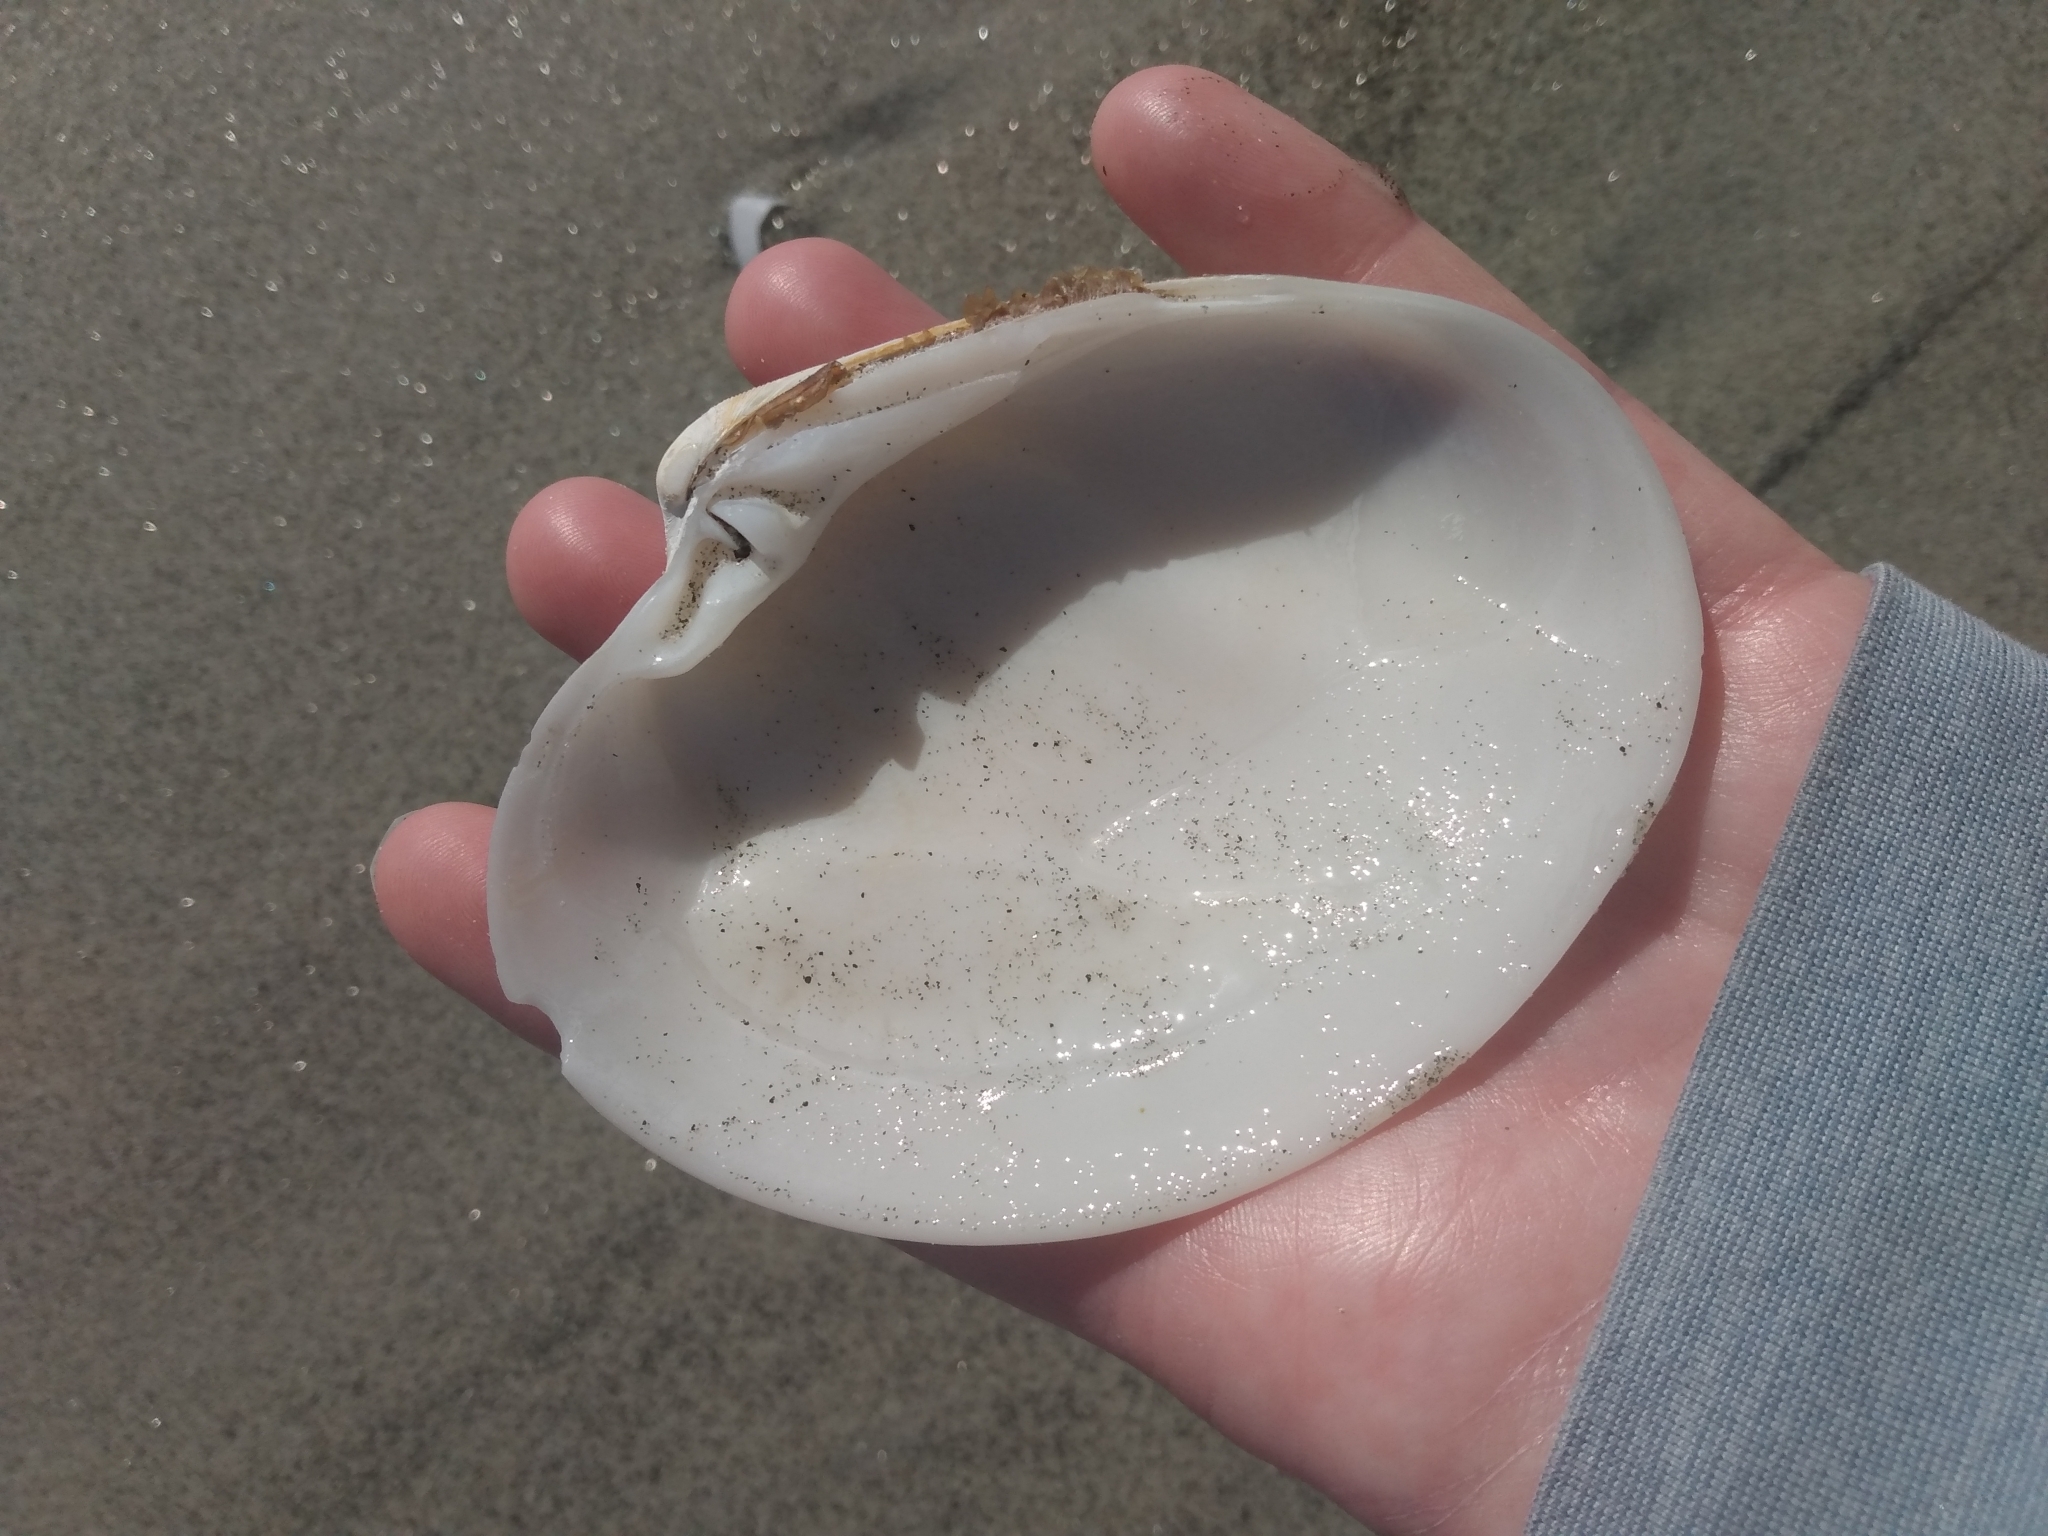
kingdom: Animalia
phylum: Mollusca
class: Bivalvia
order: Venerida
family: Veneridae
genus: Amiantis
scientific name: Amiantis callosa
